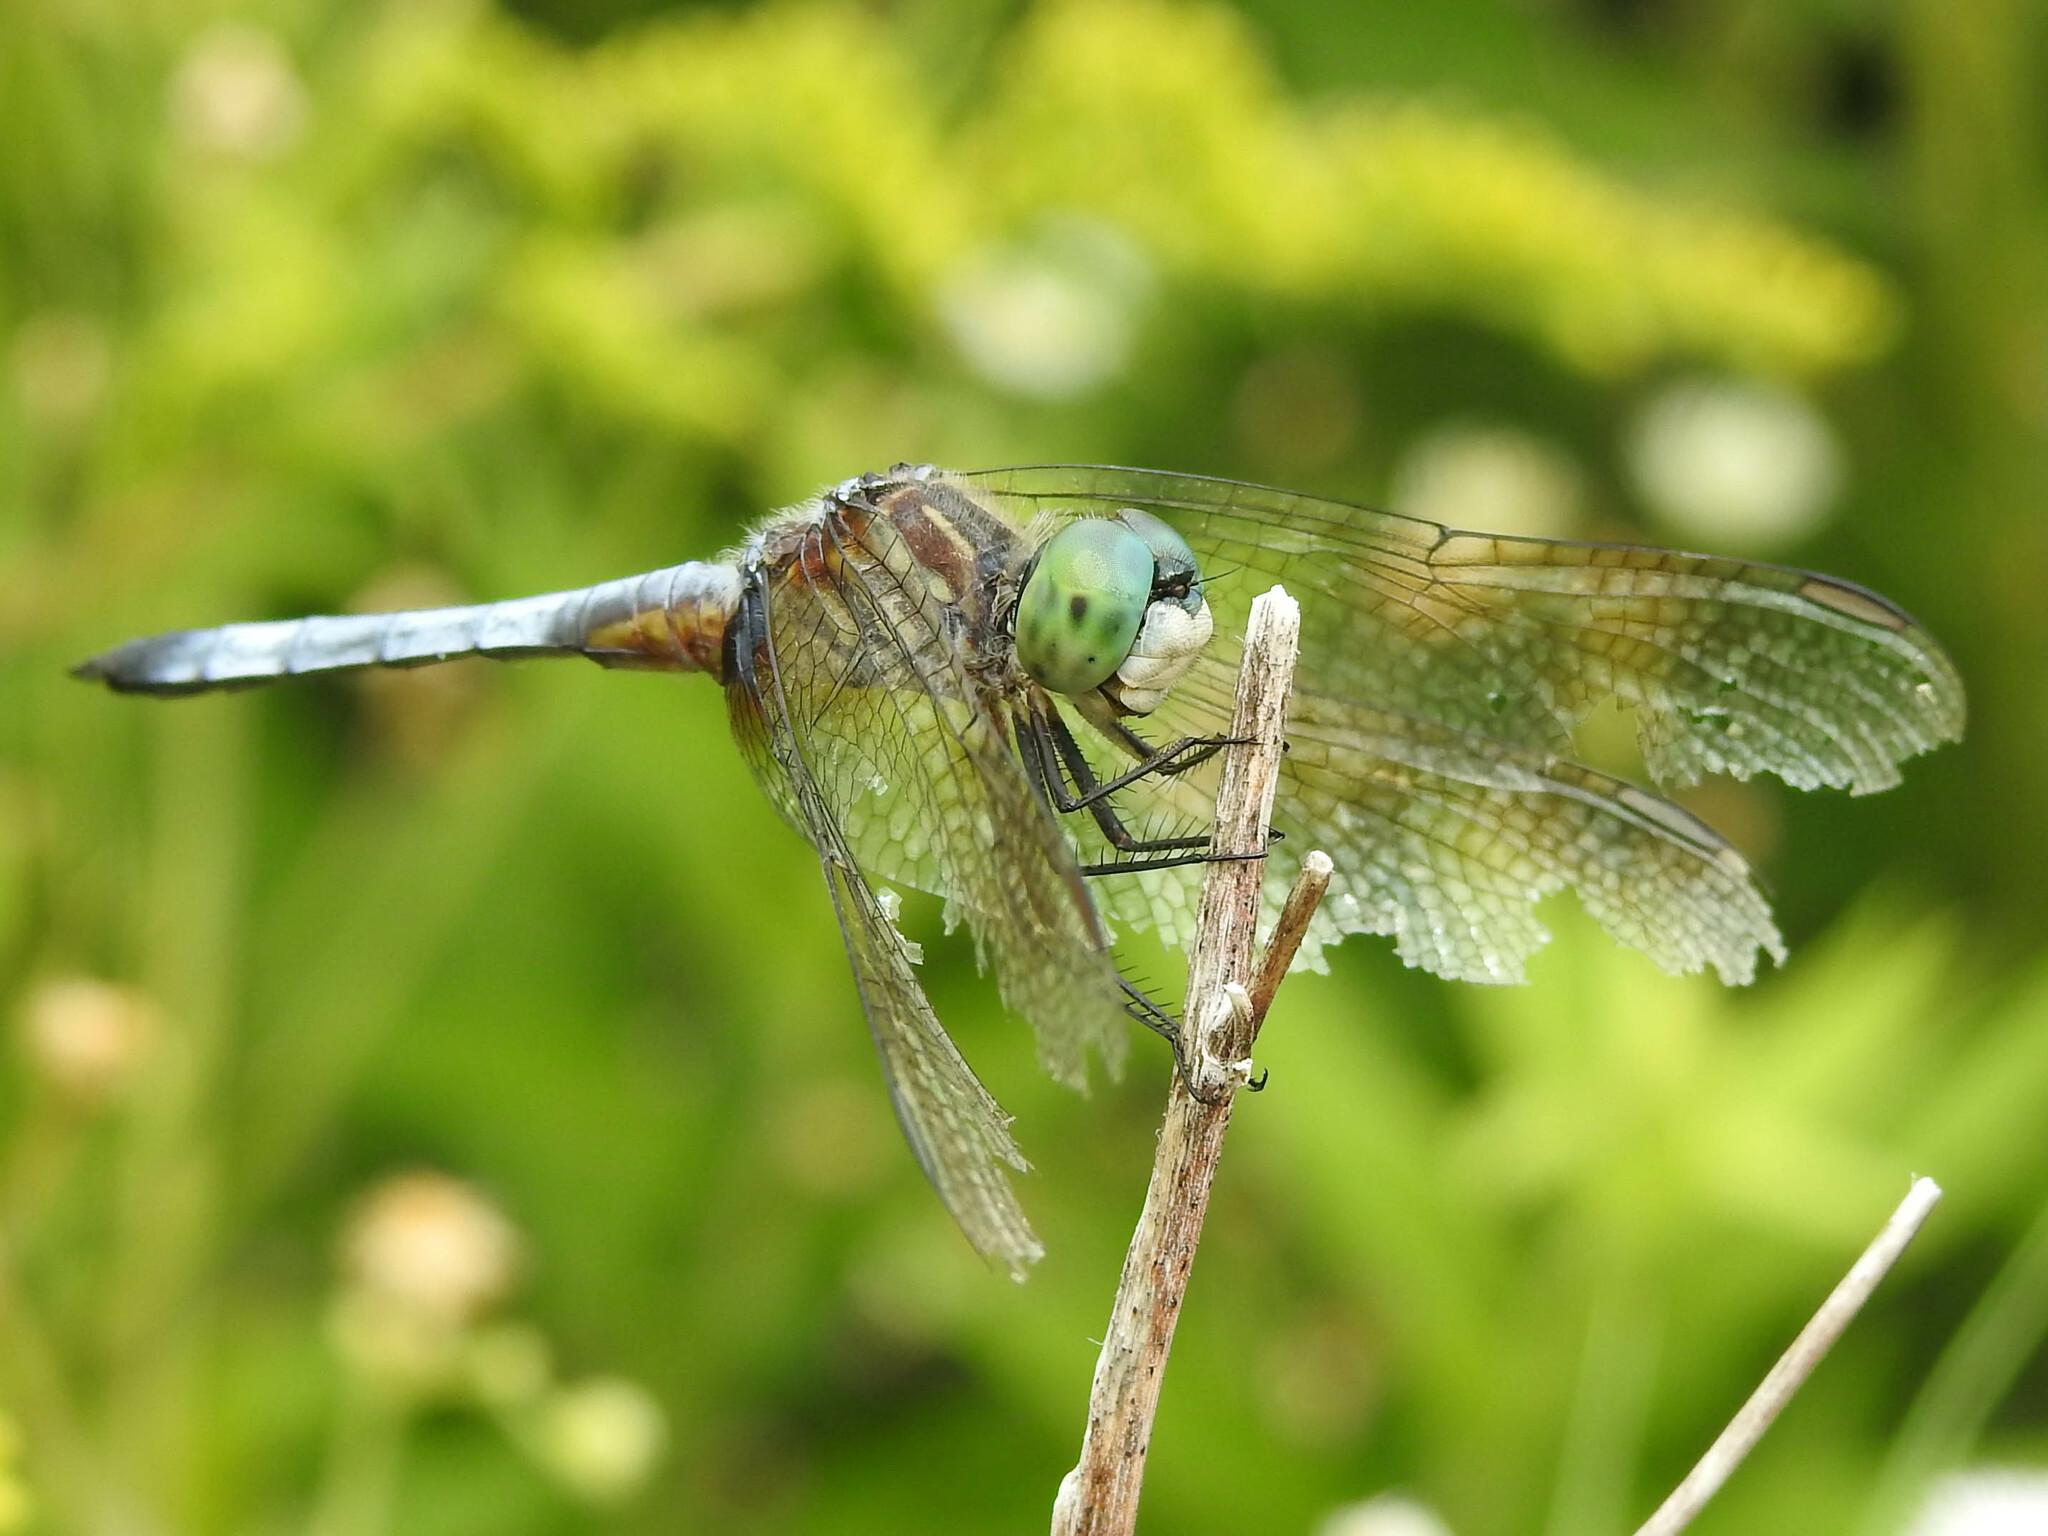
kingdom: Animalia
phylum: Arthropoda
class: Insecta
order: Odonata
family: Libellulidae
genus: Pachydiplax
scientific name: Pachydiplax longipennis
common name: Blue dasher
